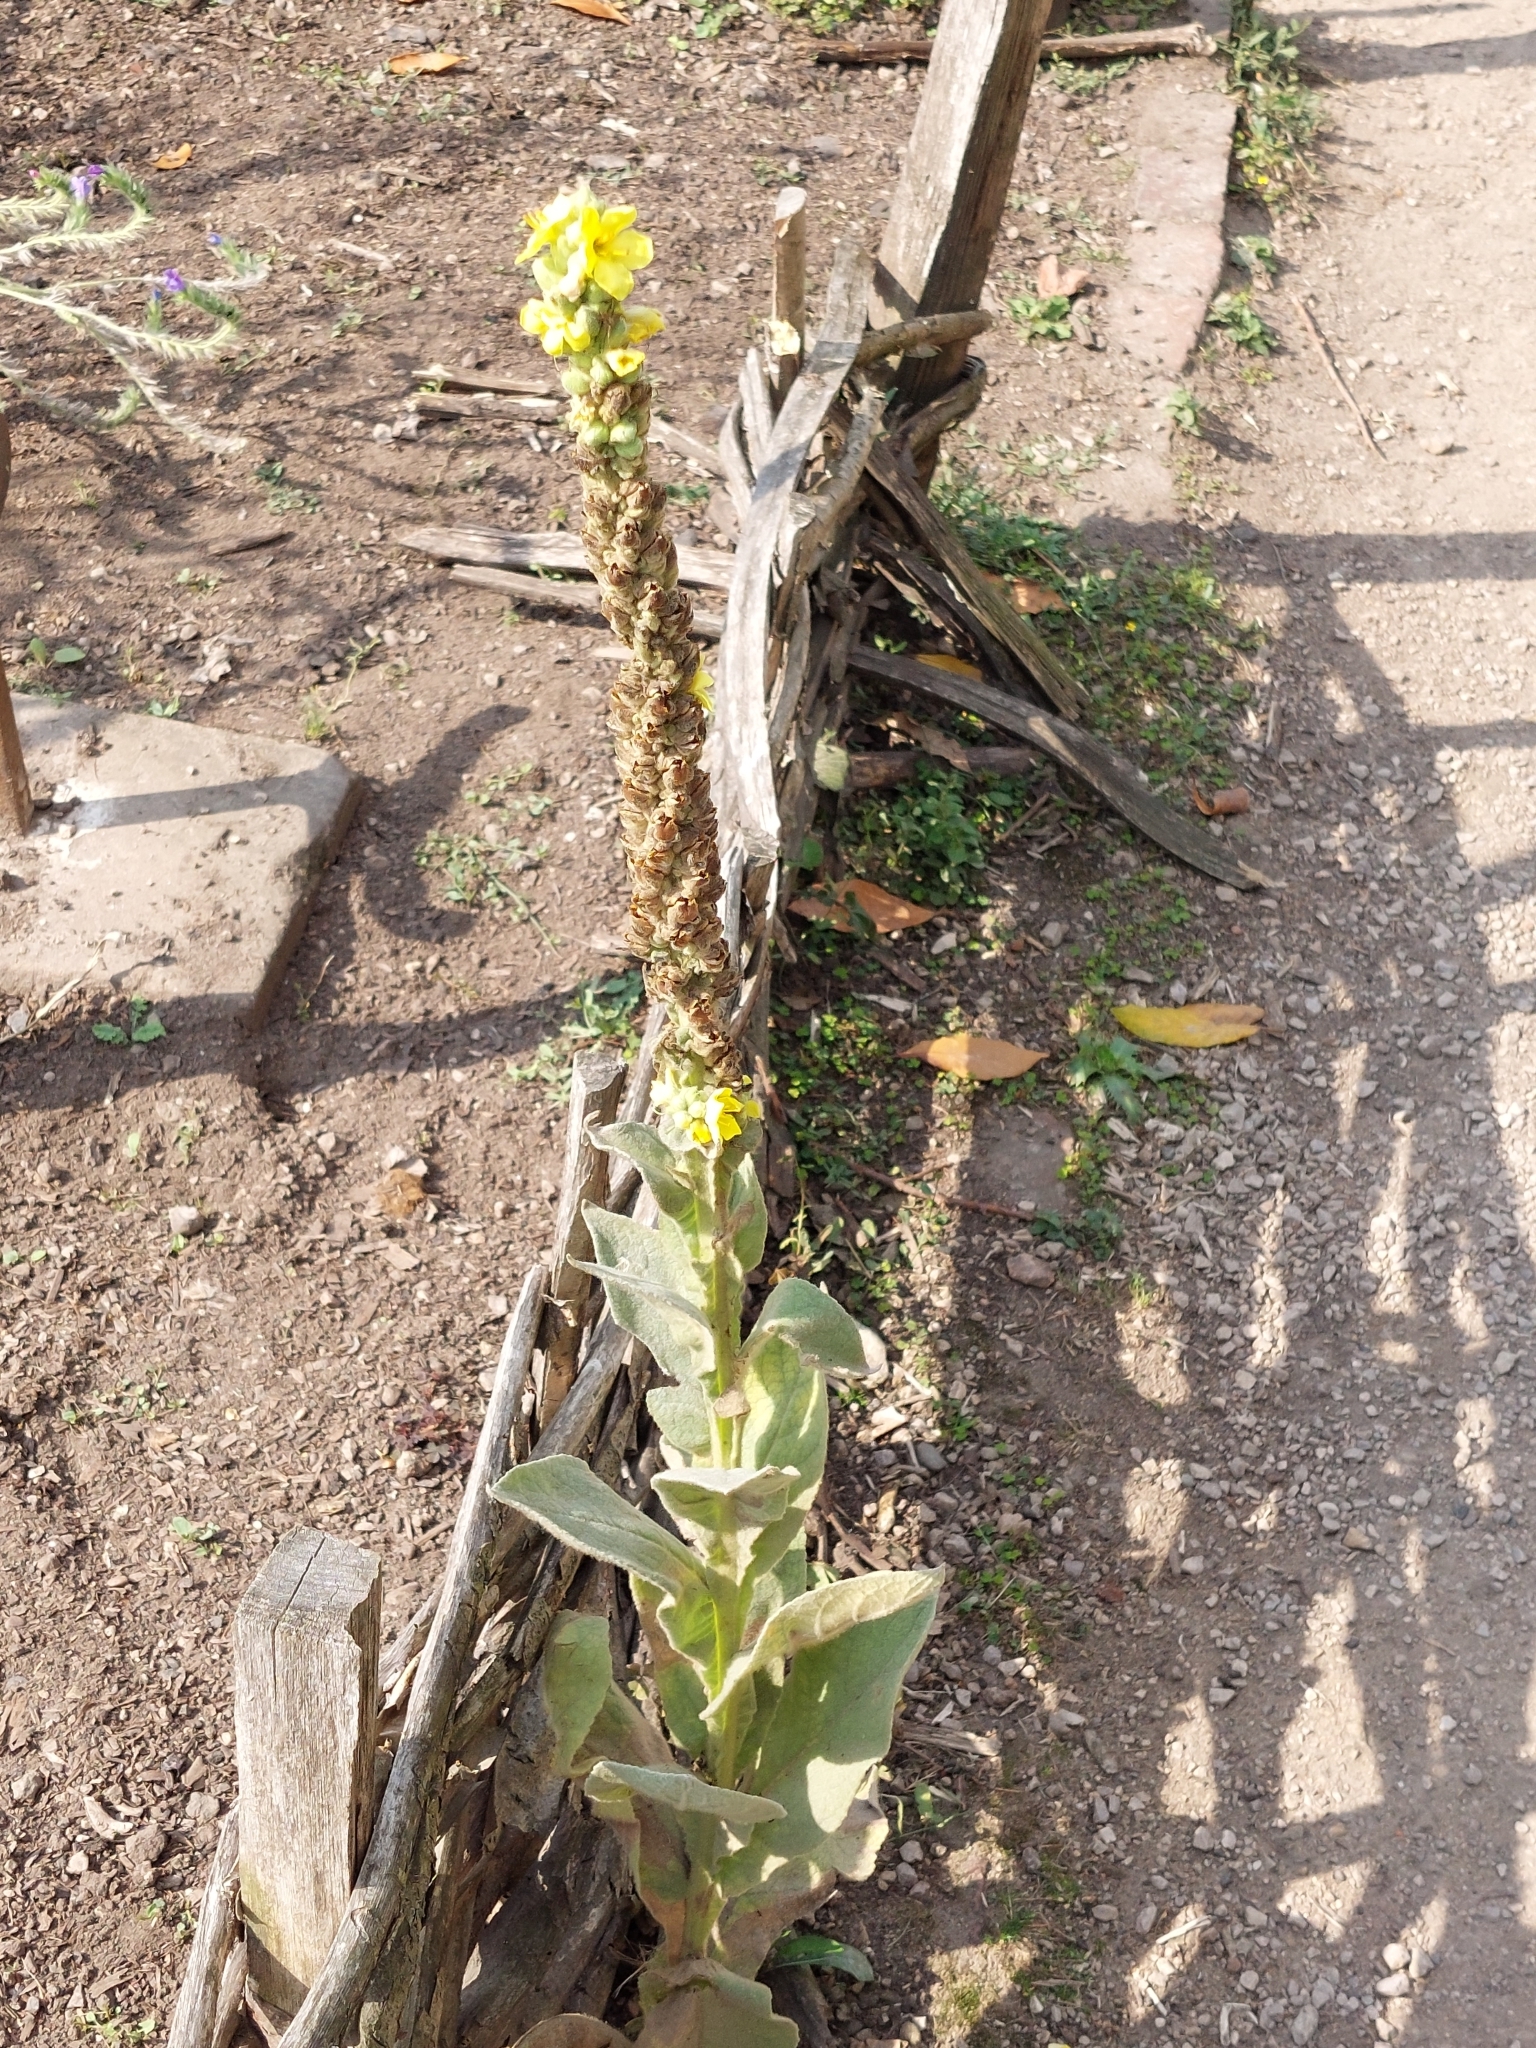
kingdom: Plantae
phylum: Tracheophyta
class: Magnoliopsida
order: Lamiales
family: Scrophulariaceae
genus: Verbascum
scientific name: Verbascum thapsus
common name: Common mullein
